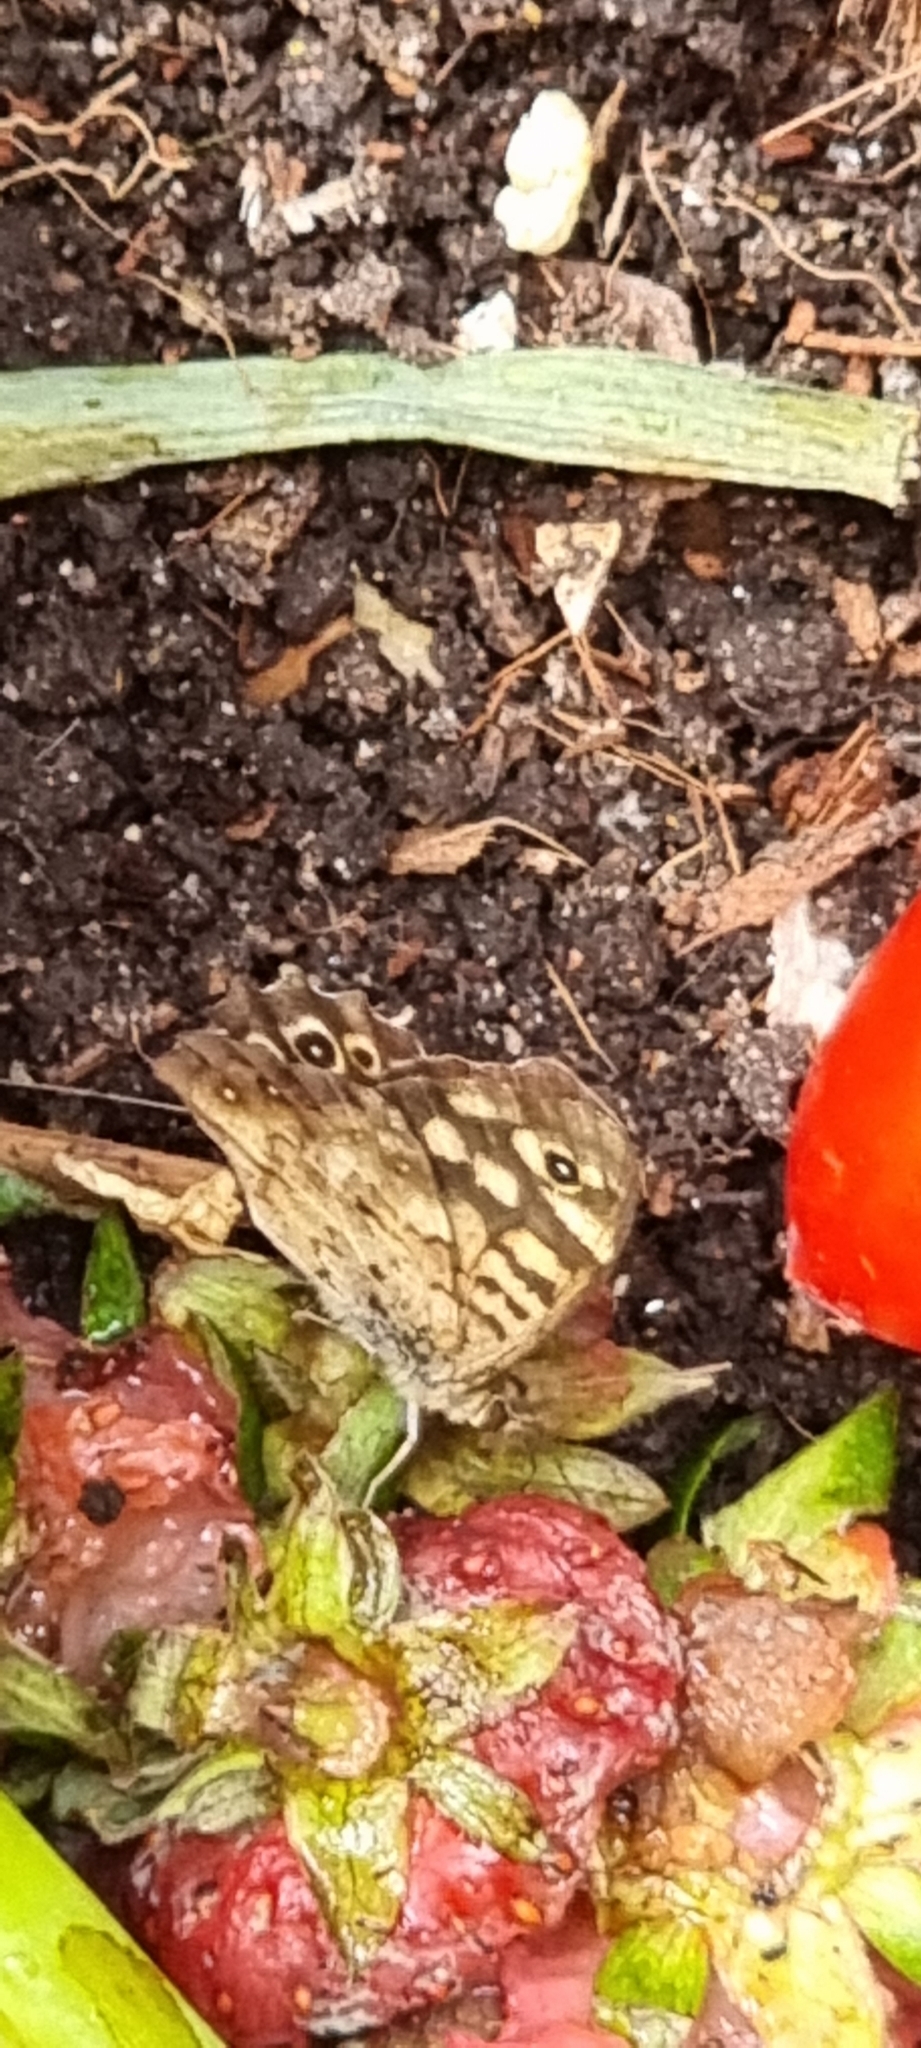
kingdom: Animalia
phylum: Arthropoda
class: Insecta
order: Lepidoptera
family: Nymphalidae
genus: Pararge
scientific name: Pararge aegeria
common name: Speckled wood
